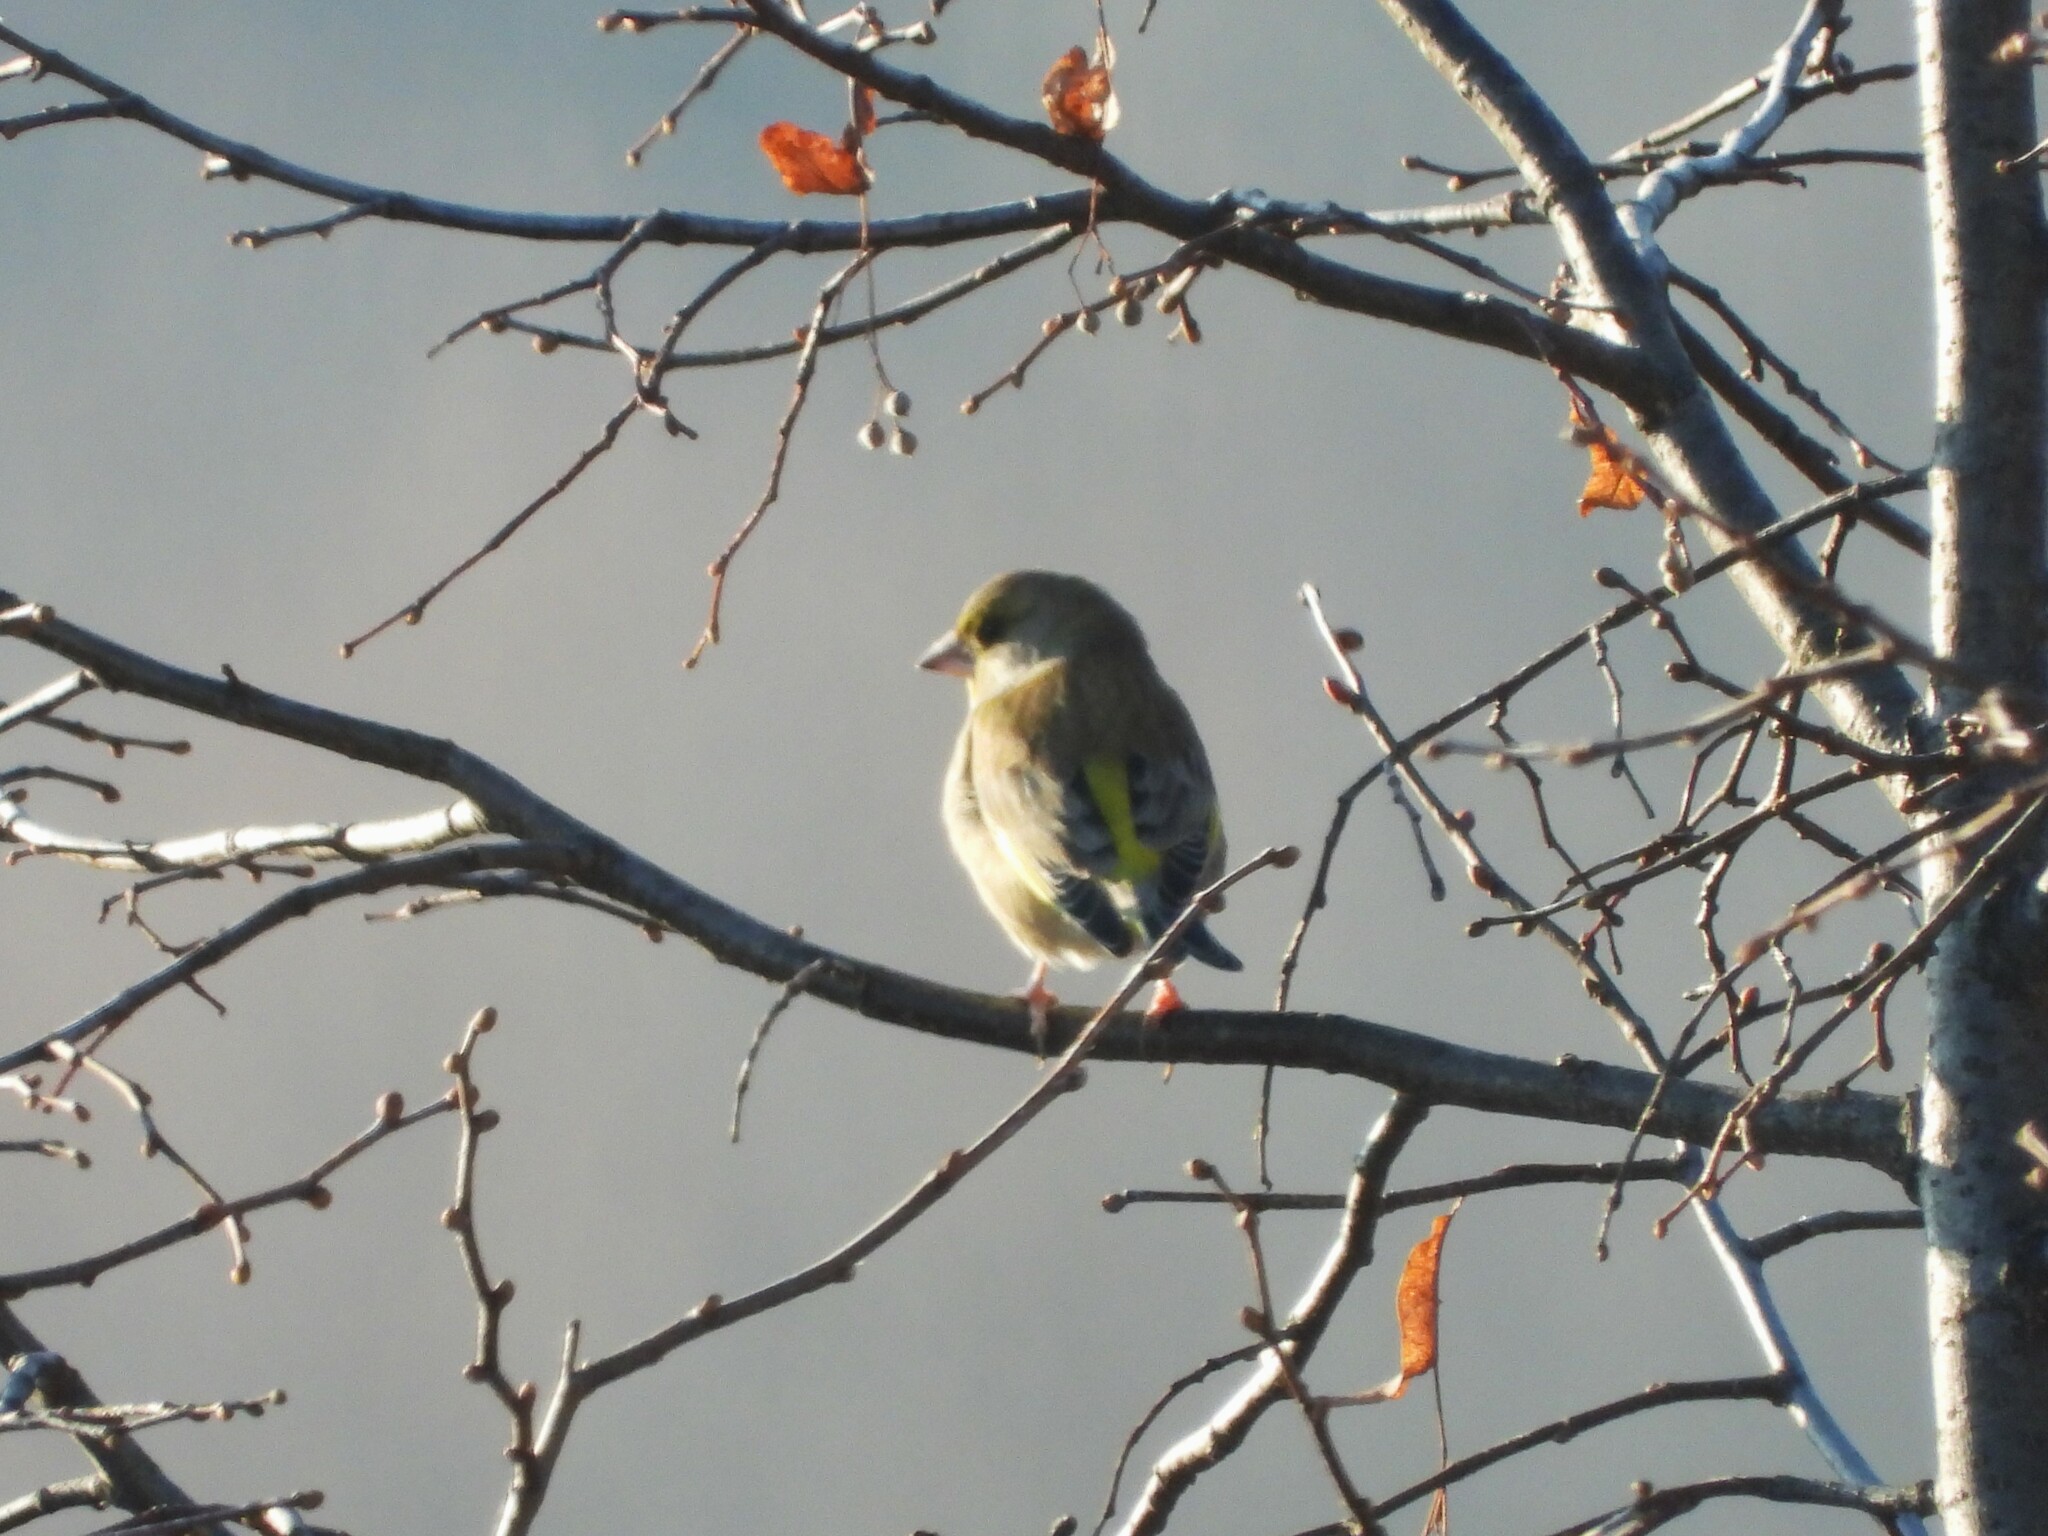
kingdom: Plantae
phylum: Tracheophyta
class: Liliopsida
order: Poales
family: Poaceae
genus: Chloris
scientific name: Chloris chloris
